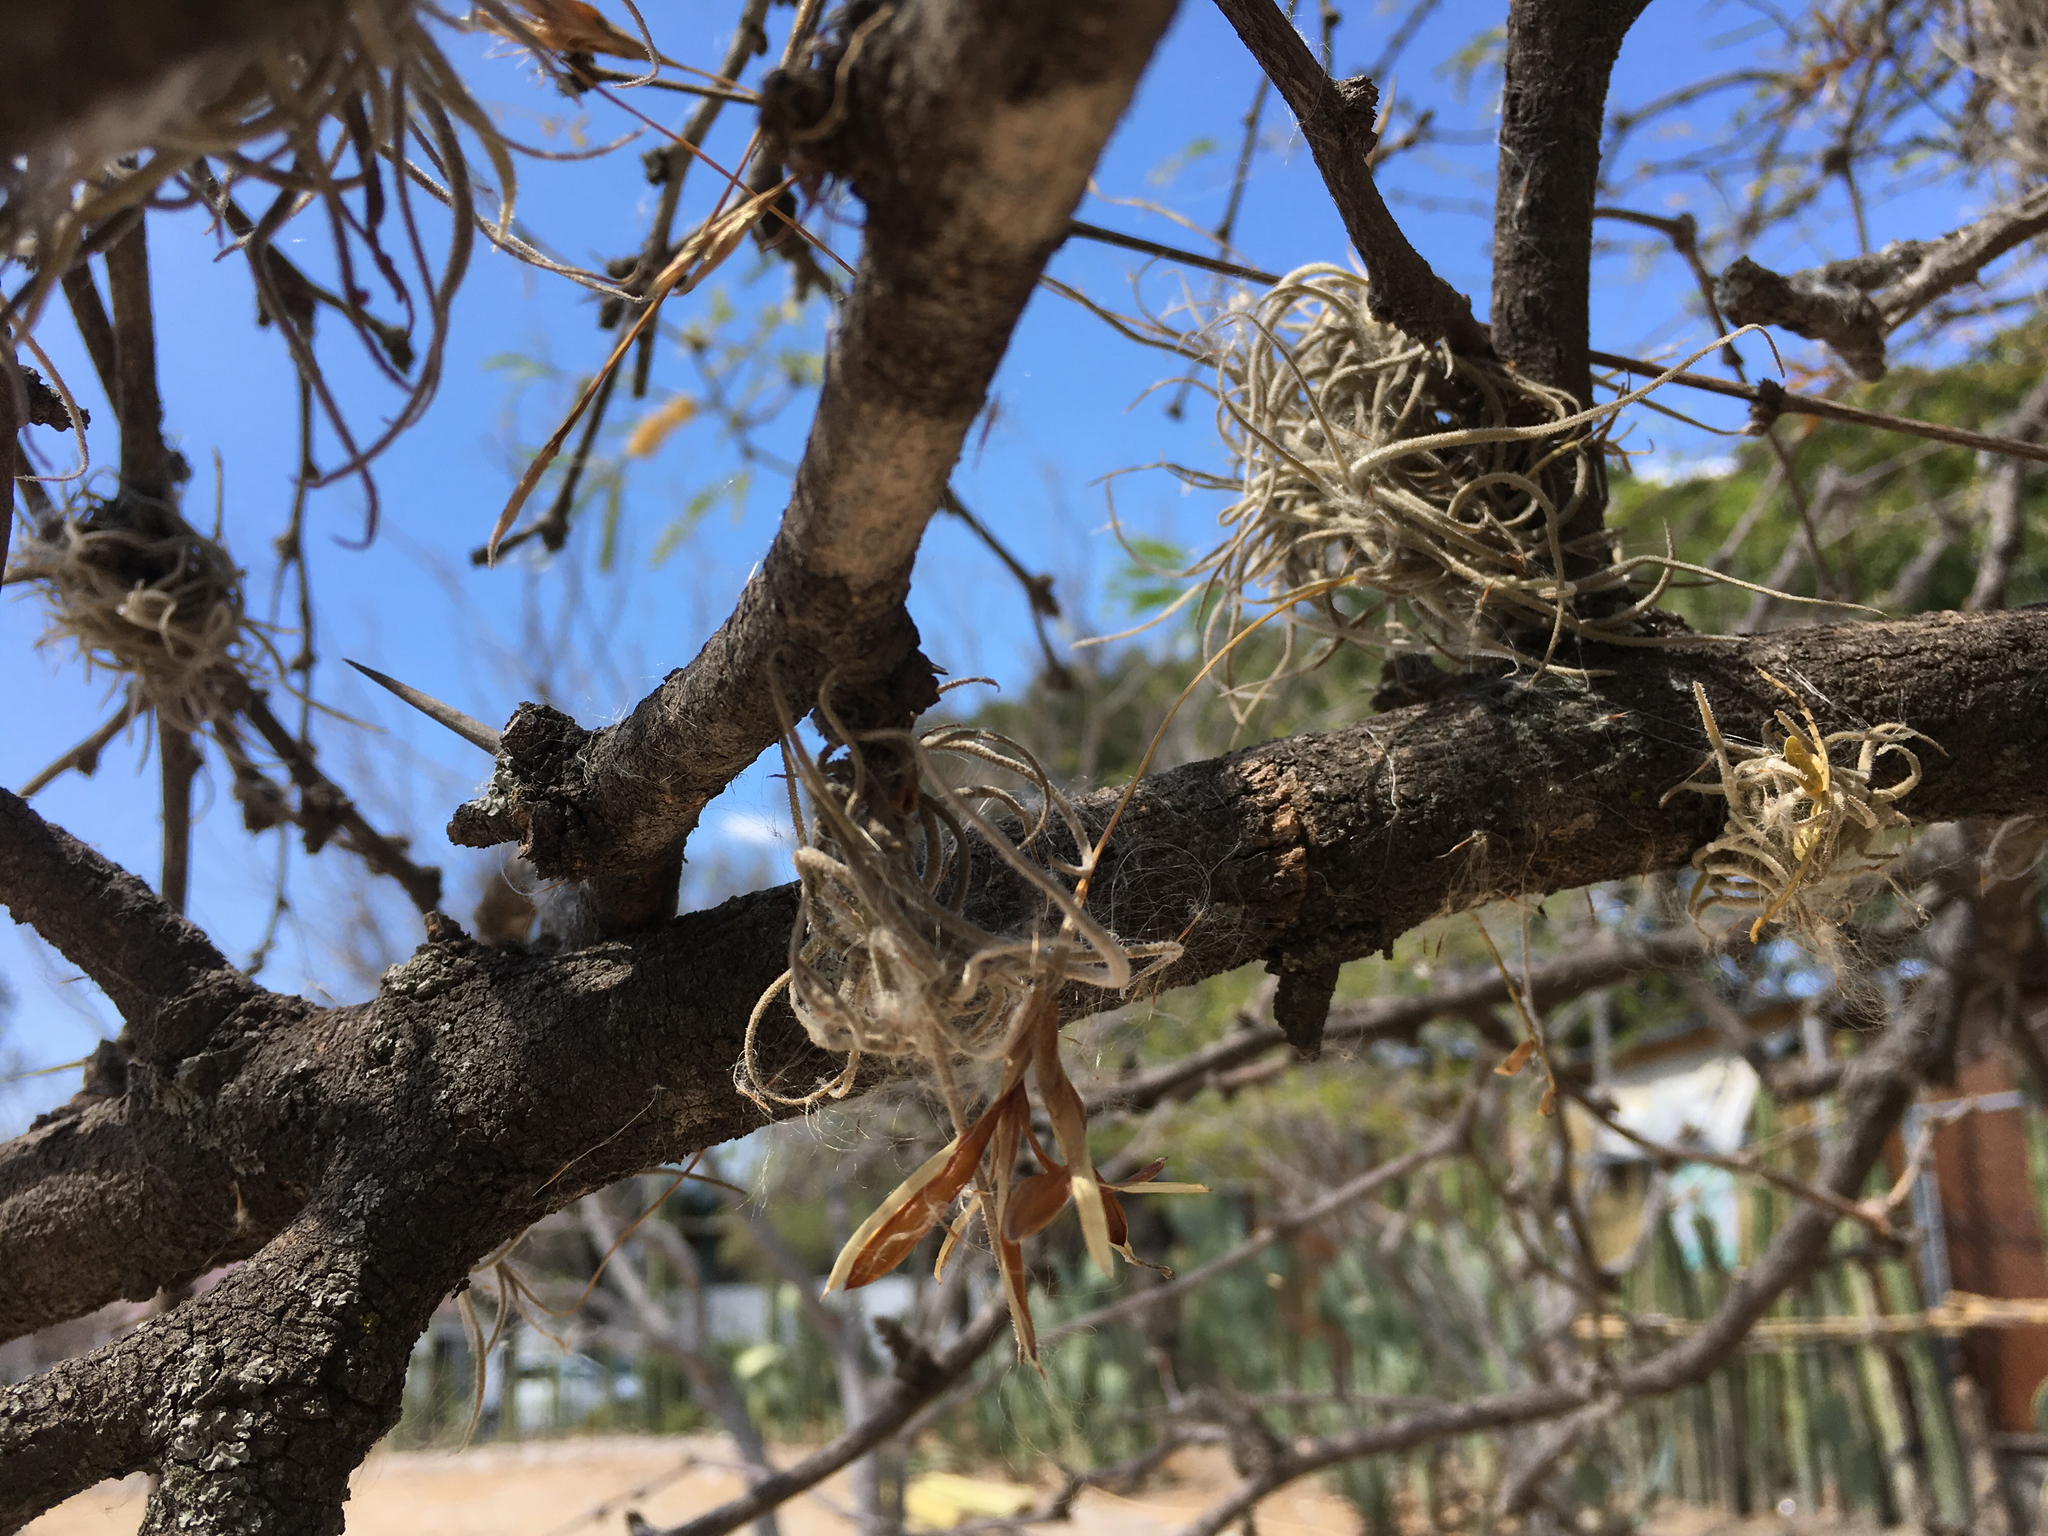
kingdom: Plantae
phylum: Tracheophyta
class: Liliopsida
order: Poales
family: Bromeliaceae
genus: Tillandsia
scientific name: Tillandsia recurvata
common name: Small ballmoss
